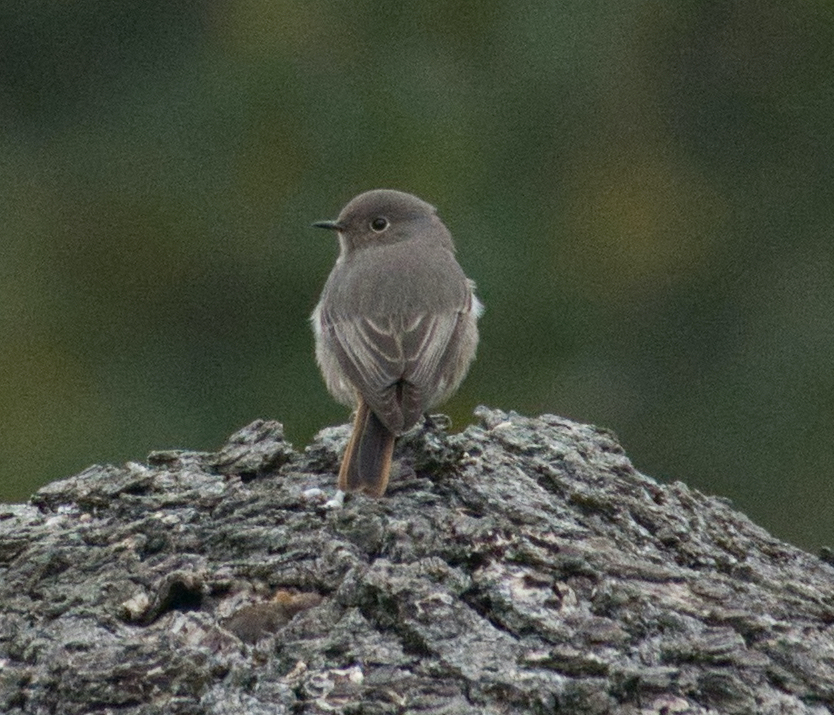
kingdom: Animalia
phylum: Chordata
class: Aves
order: Passeriformes
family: Muscicapidae
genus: Phoenicurus
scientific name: Phoenicurus ochruros
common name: Black redstart
